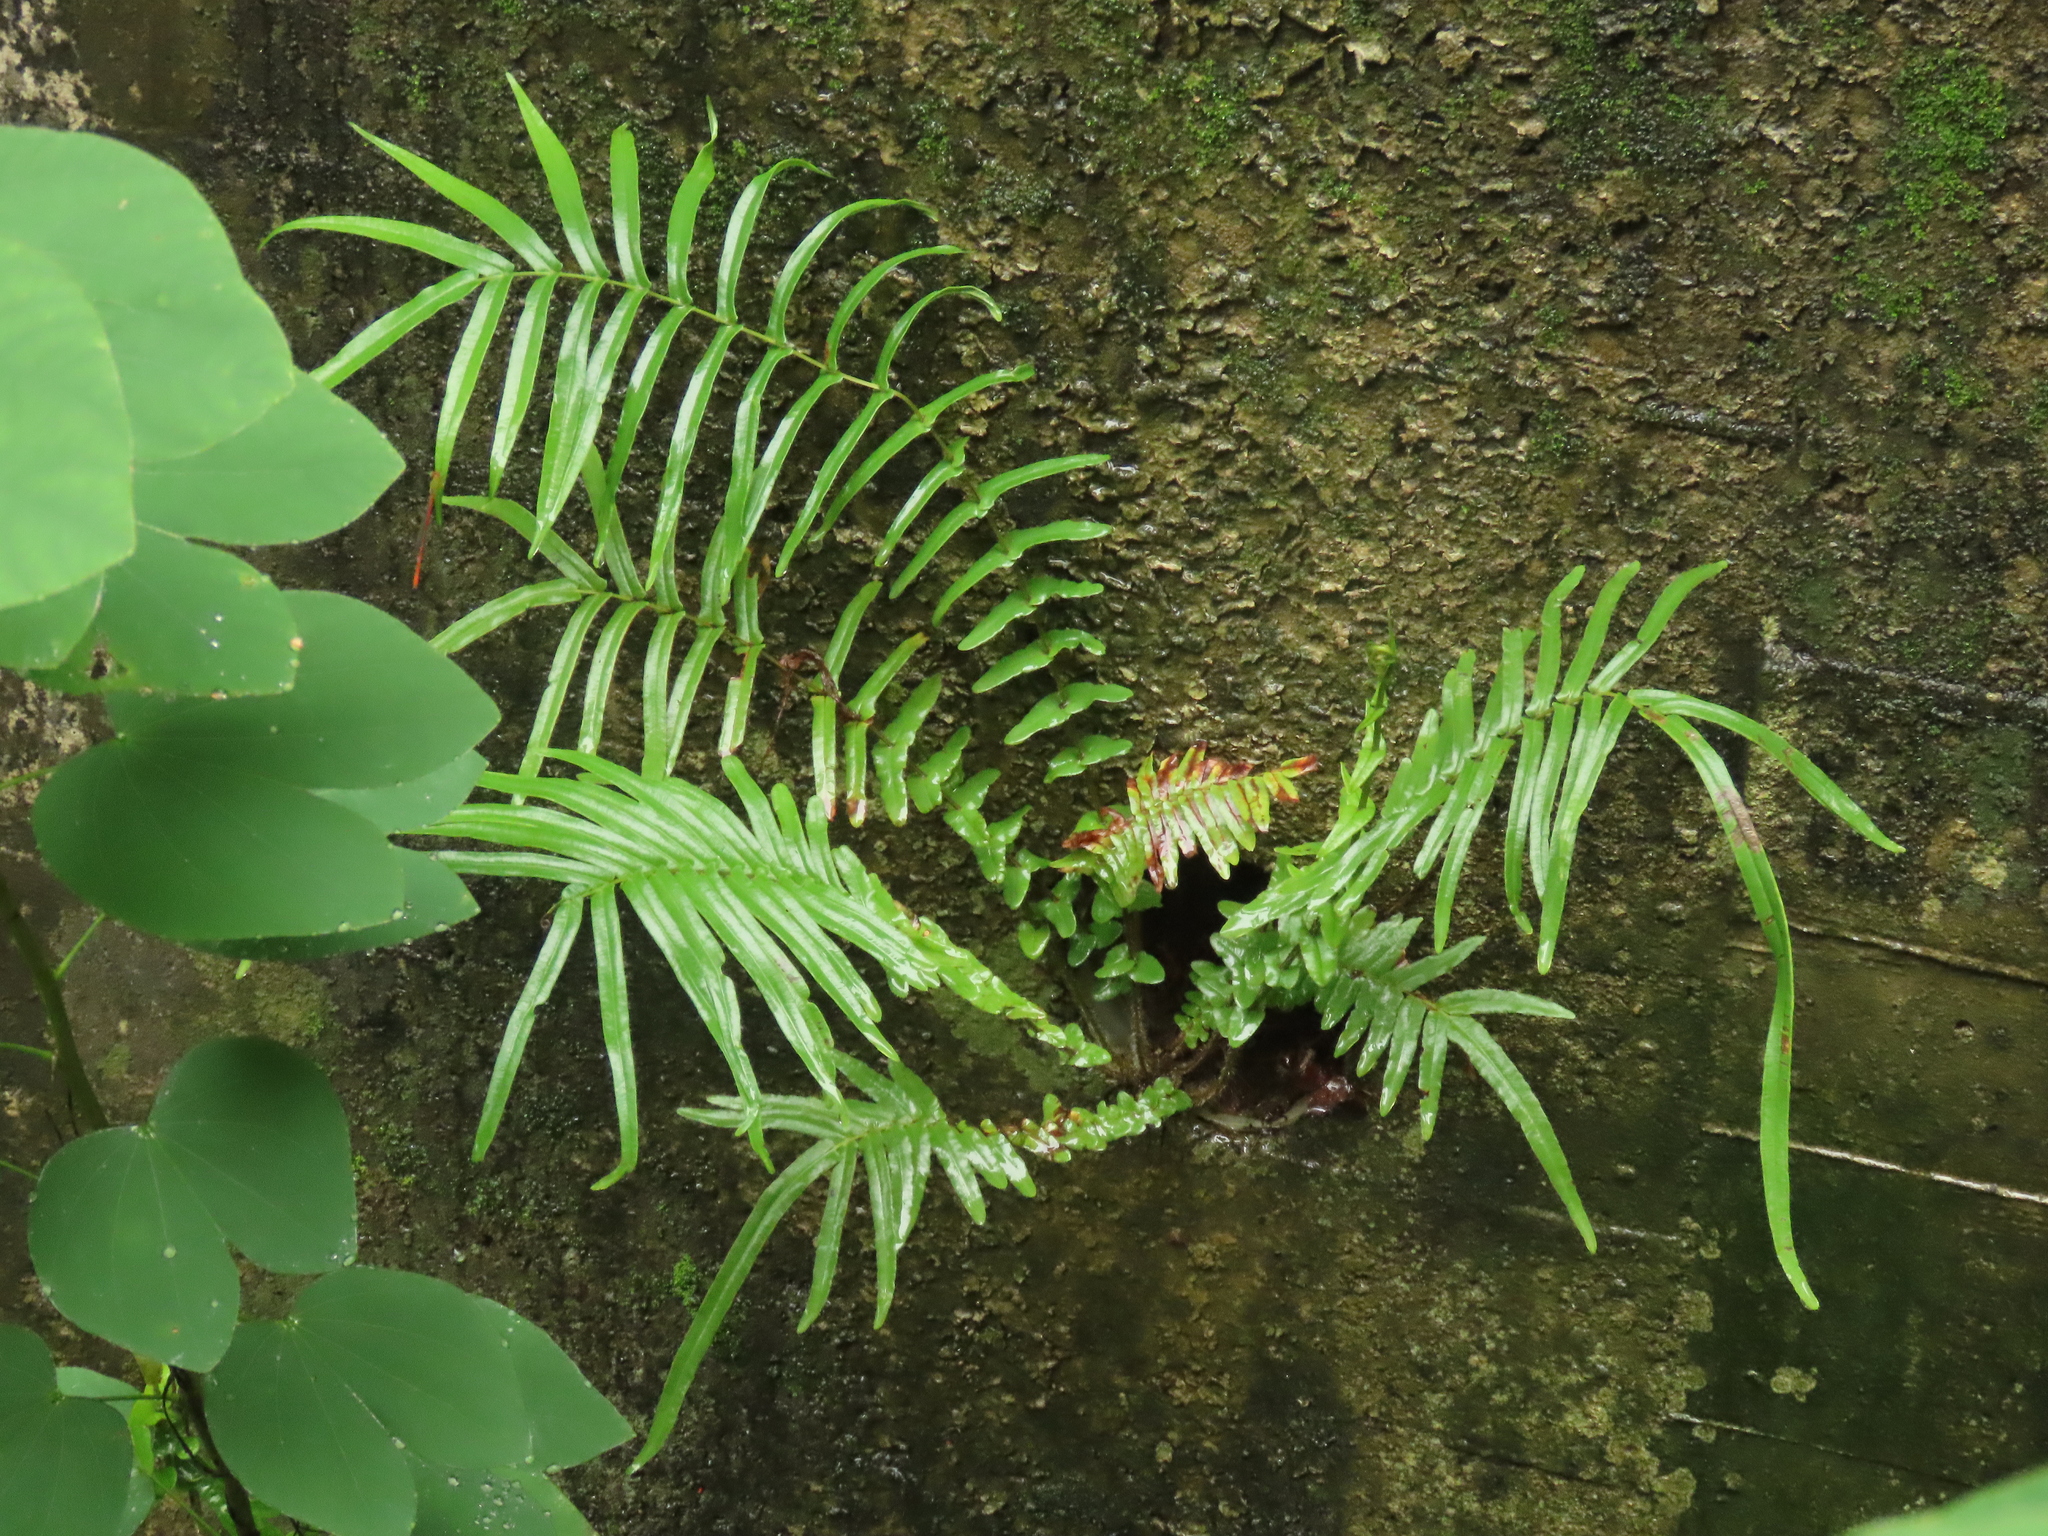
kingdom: Plantae
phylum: Tracheophyta
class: Polypodiopsida
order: Polypodiales
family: Pteridaceae
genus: Pteris
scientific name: Pteris vittata
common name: Ladder brake
